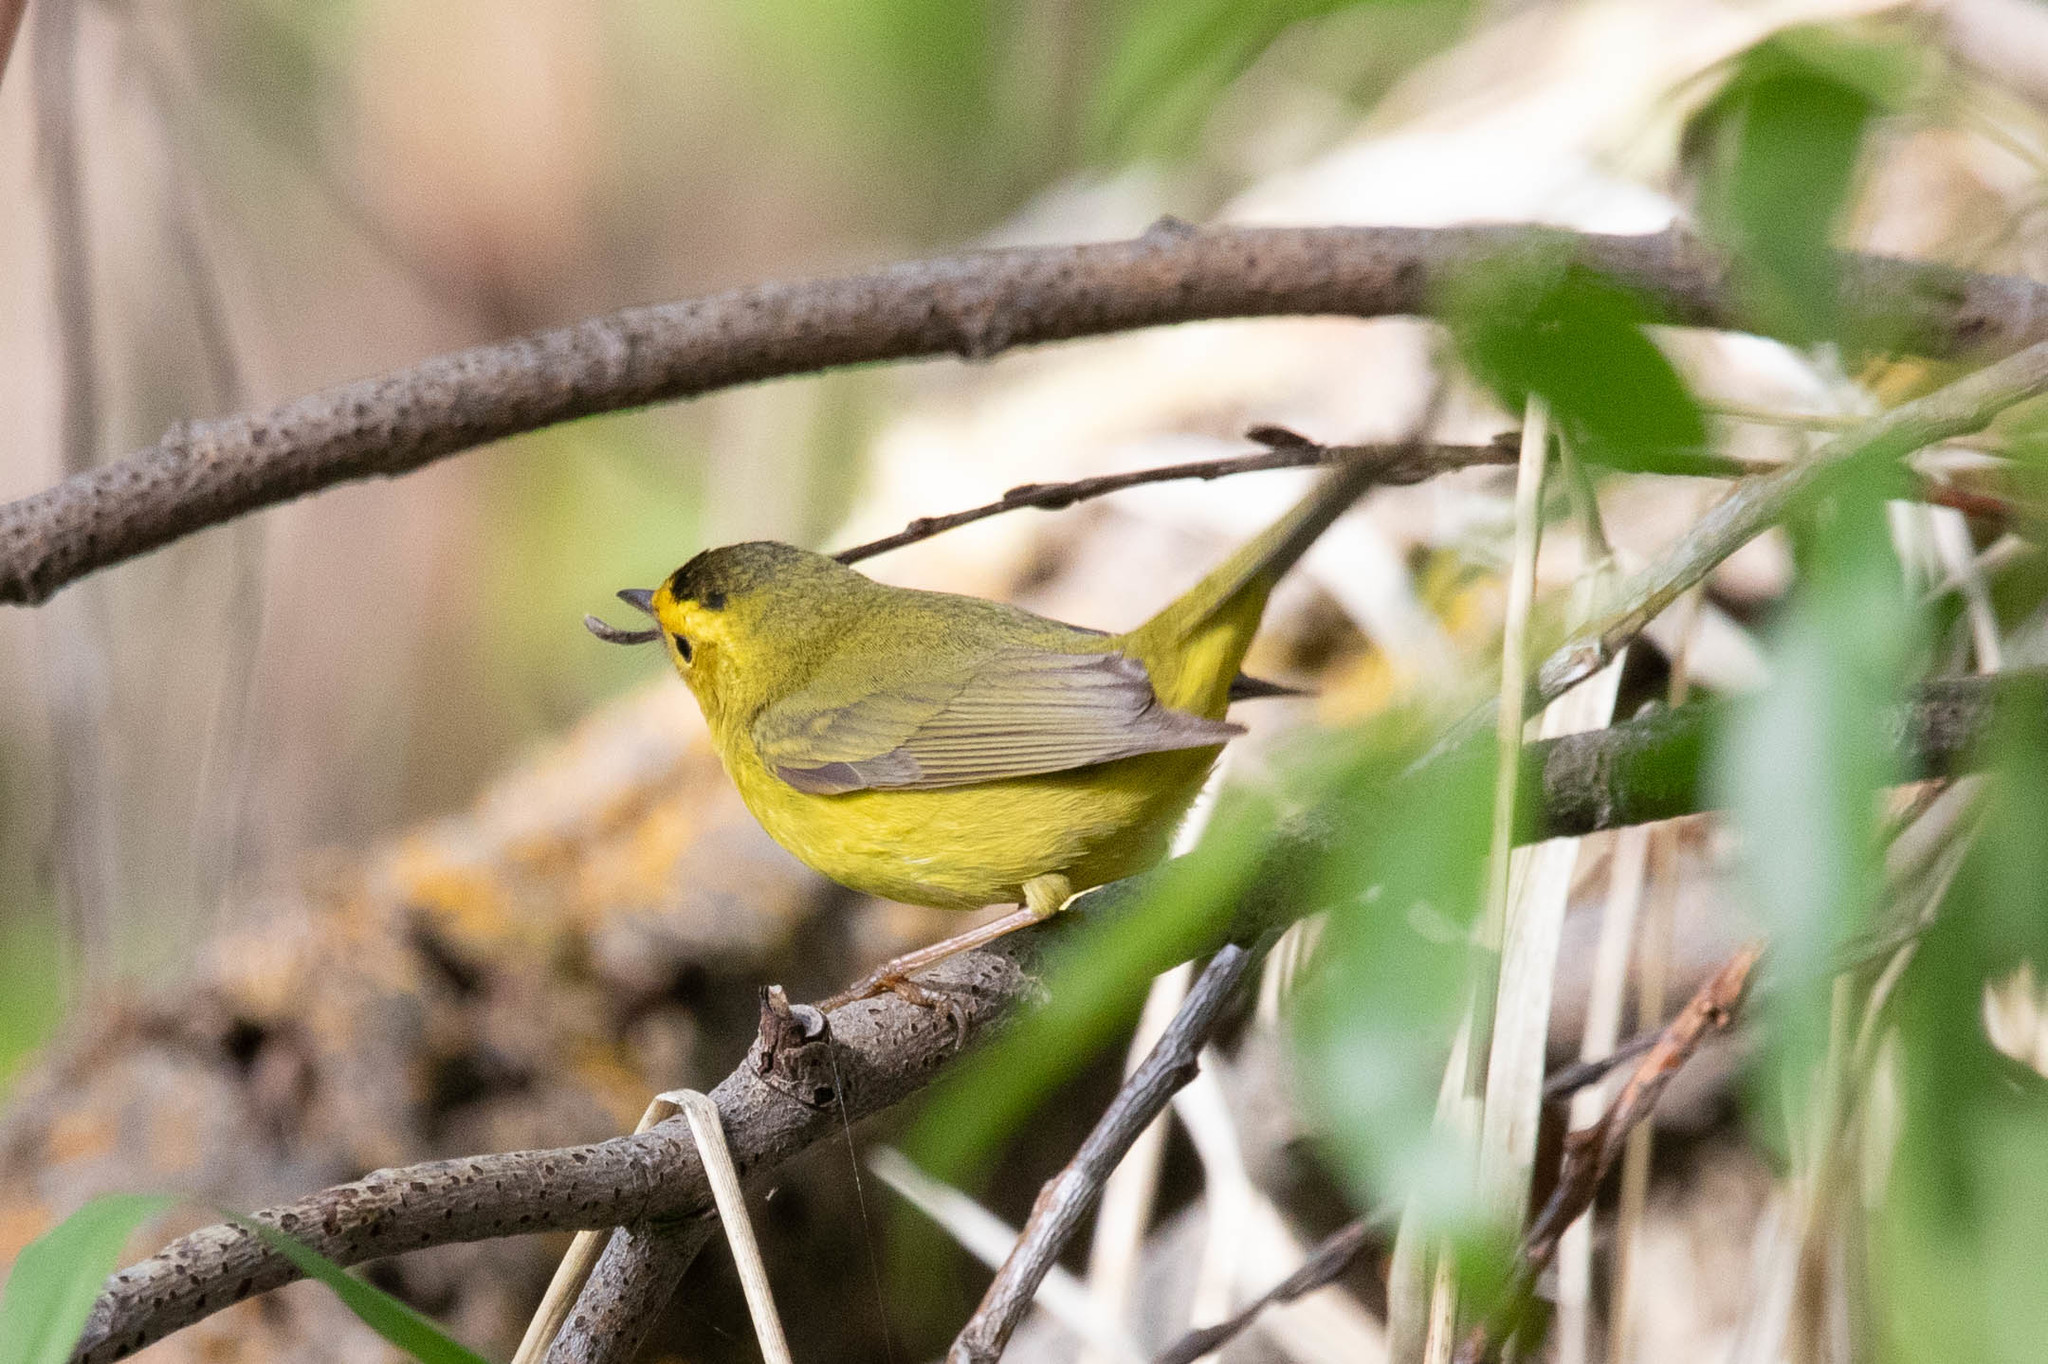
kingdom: Animalia
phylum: Chordata
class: Aves
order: Passeriformes
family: Parulidae
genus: Cardellina
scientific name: Cardellina pusilla
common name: Wilson's warbler
